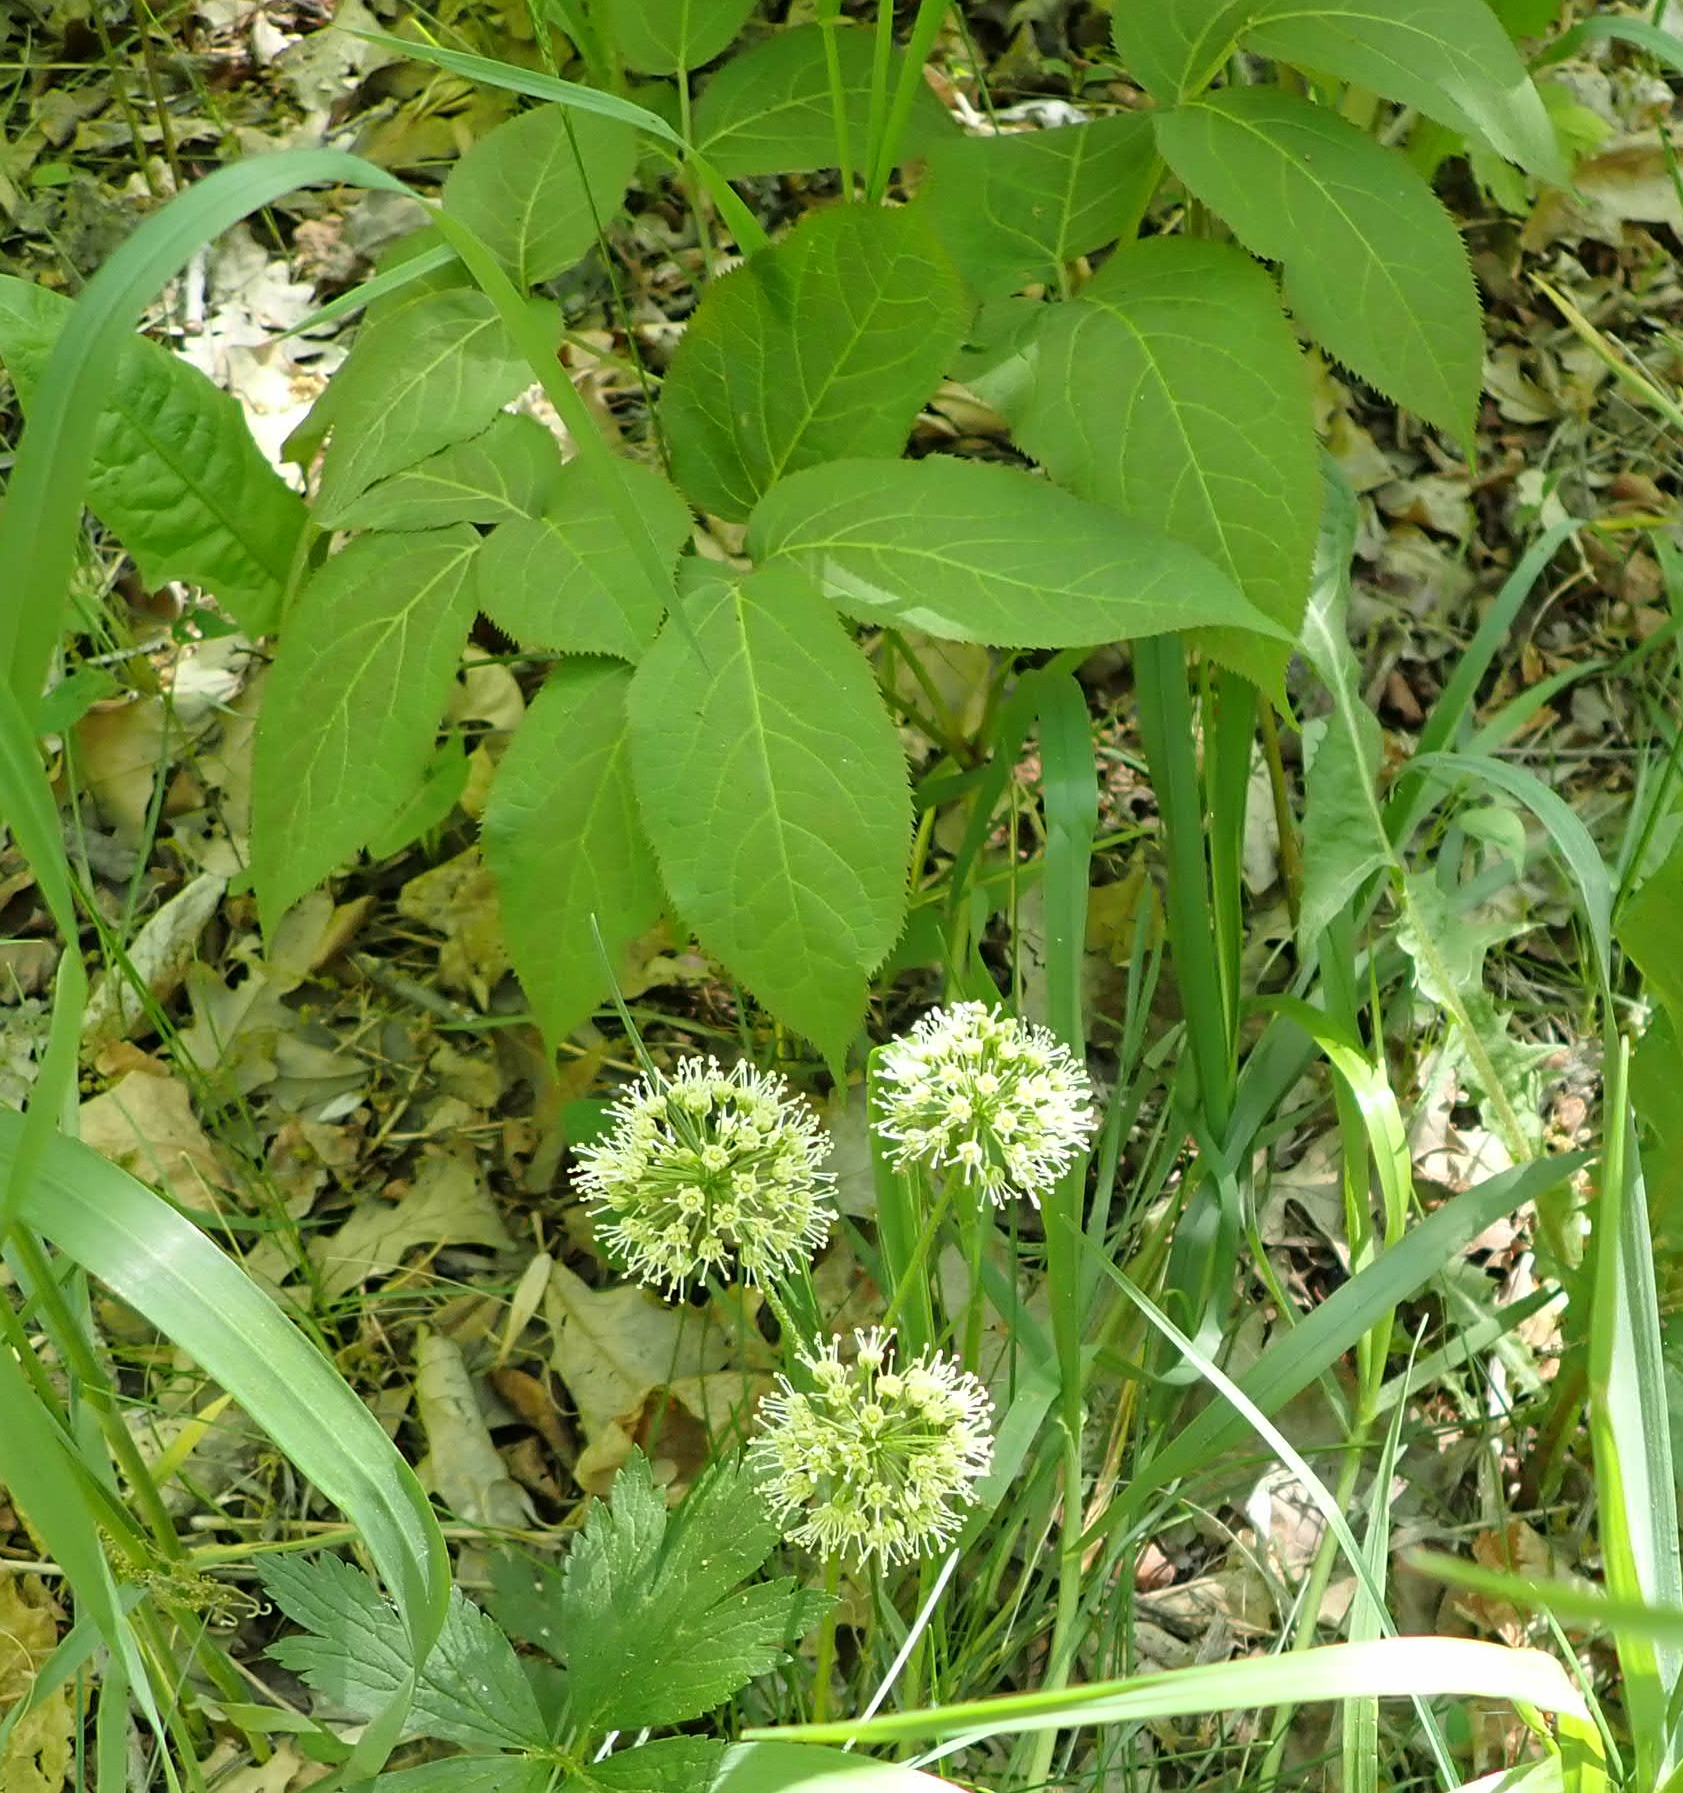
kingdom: Plantae
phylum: Tracheophyta
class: Magnoliopsida
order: Apiales
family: Araliaceae
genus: Aralia
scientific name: Aralia nudicaulis
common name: Wild sarsaparilla
